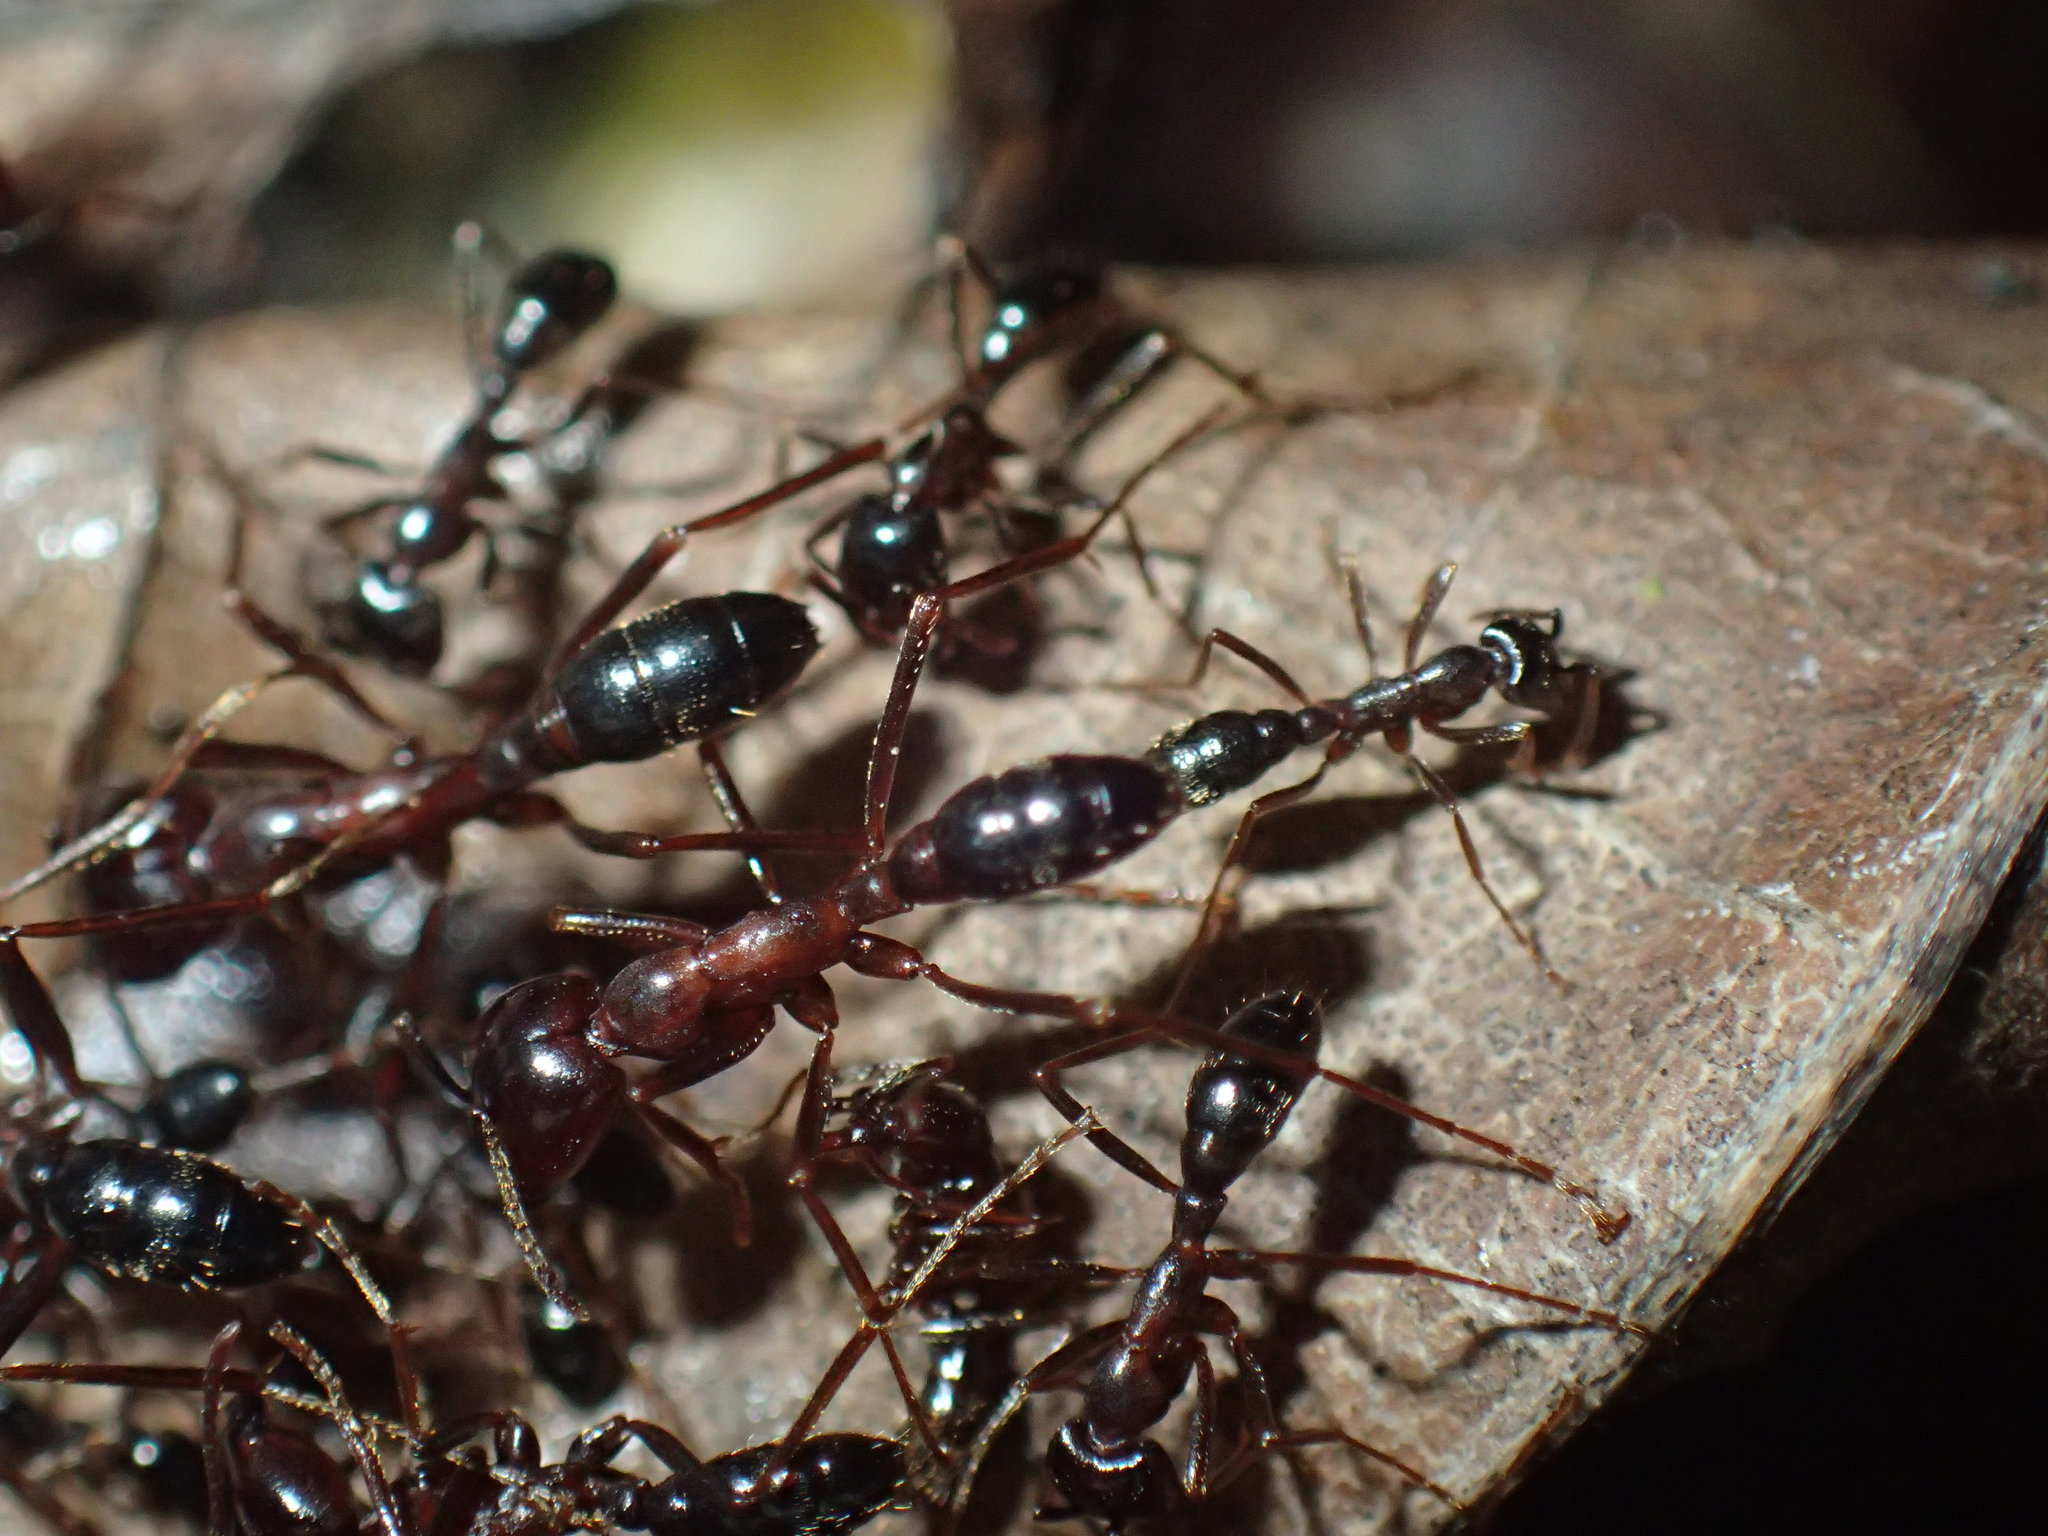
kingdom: Animalia
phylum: Arthropoda
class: Insecta
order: Hymenoptera
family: Formicidae
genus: Dorylus
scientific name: Dorylus nigricans
